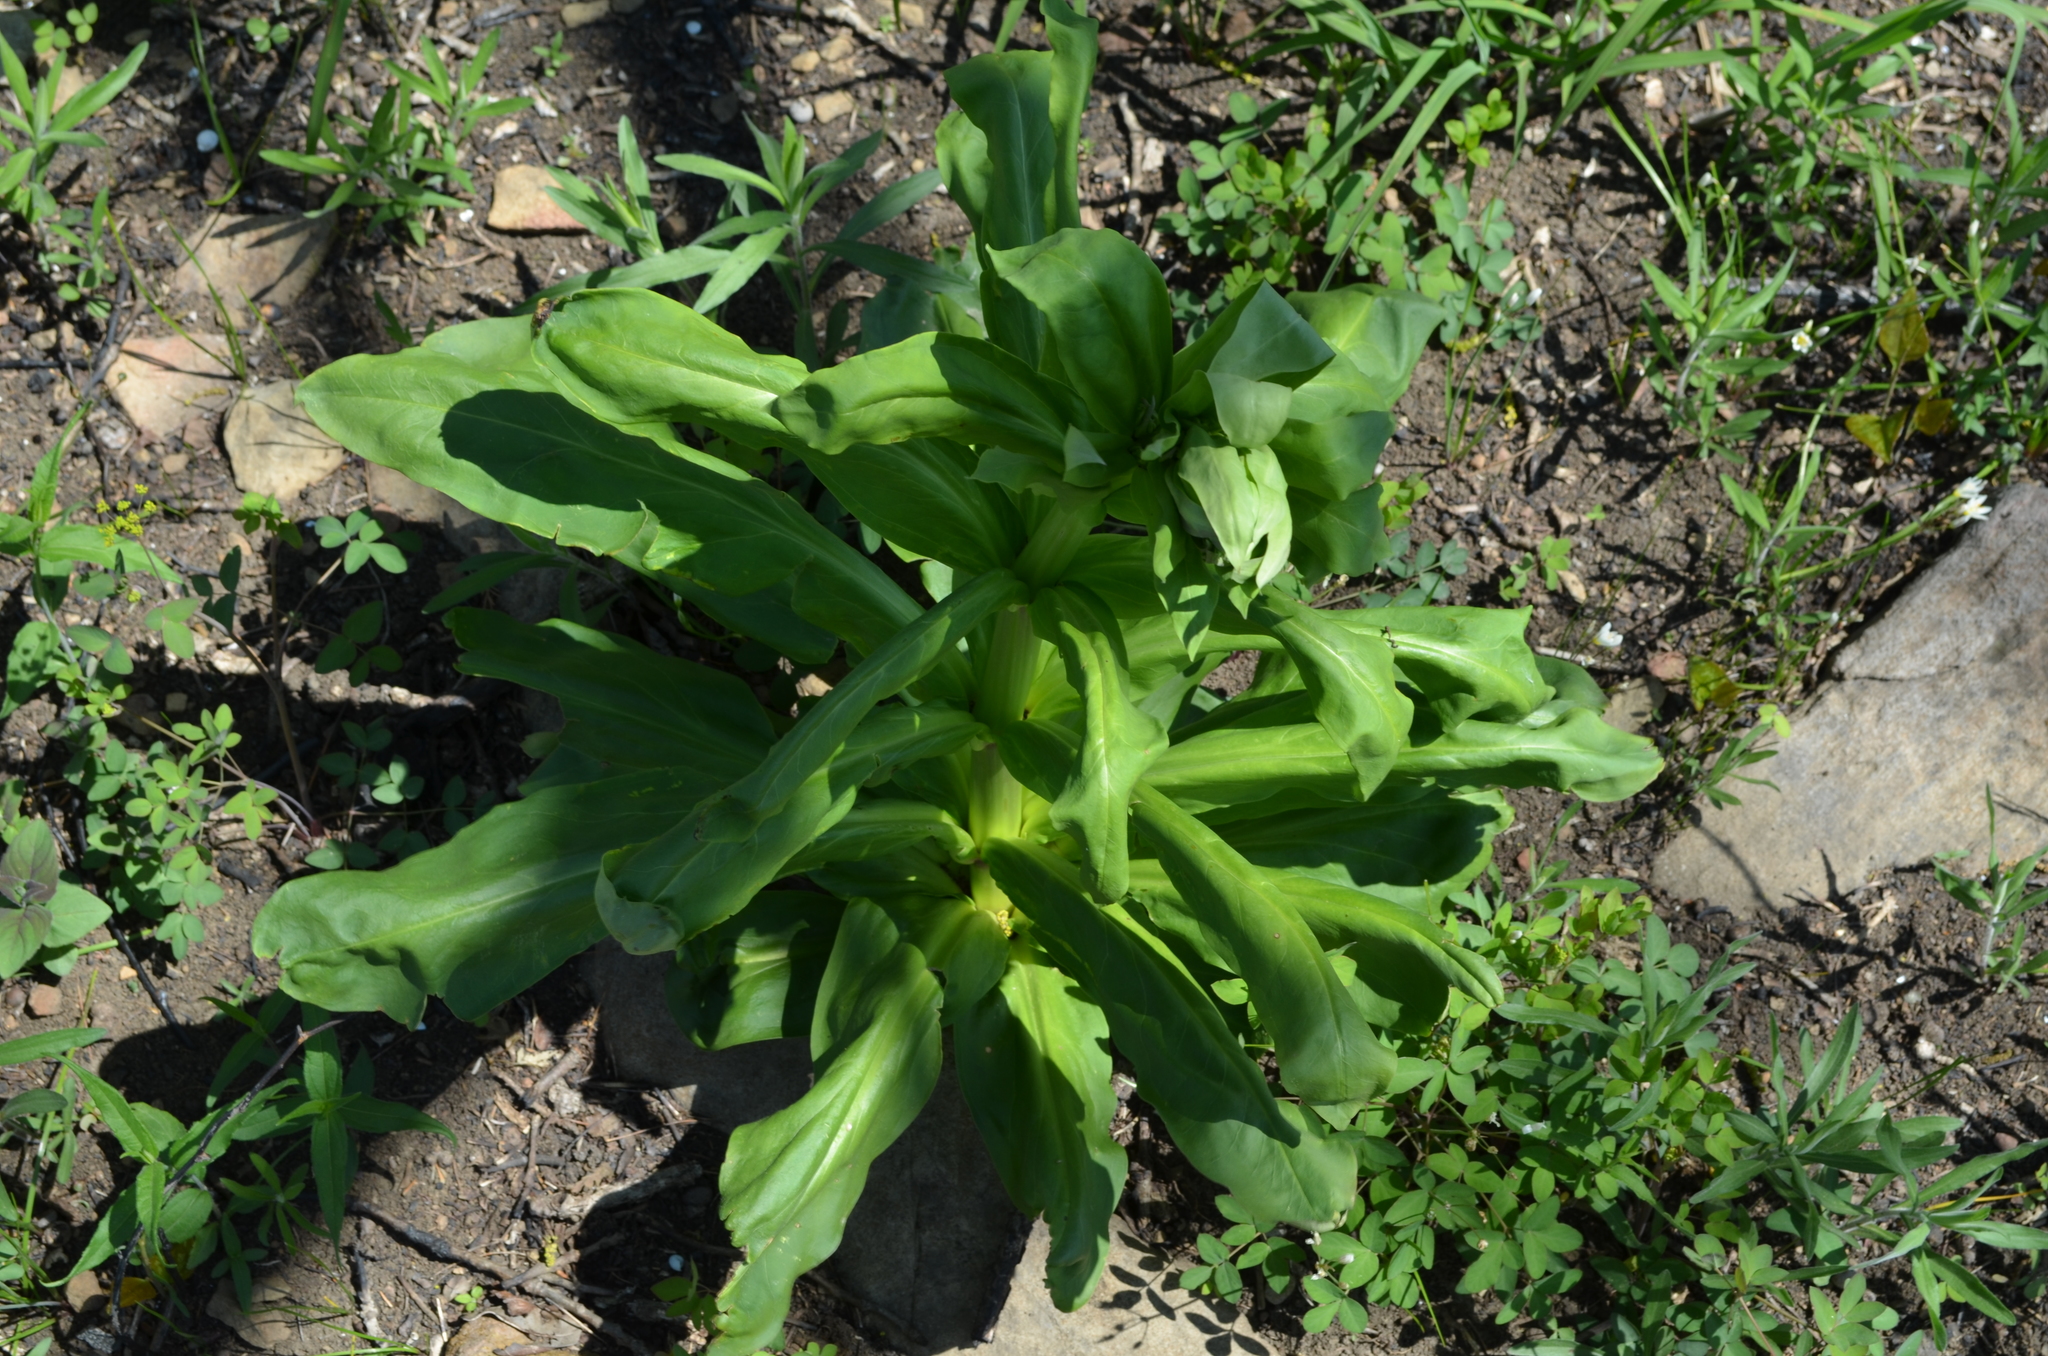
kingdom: Plantae
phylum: Tracheophyta
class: Magnoliopsida
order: Gentianales
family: Gentianaceae
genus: Frasera
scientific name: Frasera caroliniensis
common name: American columbo
